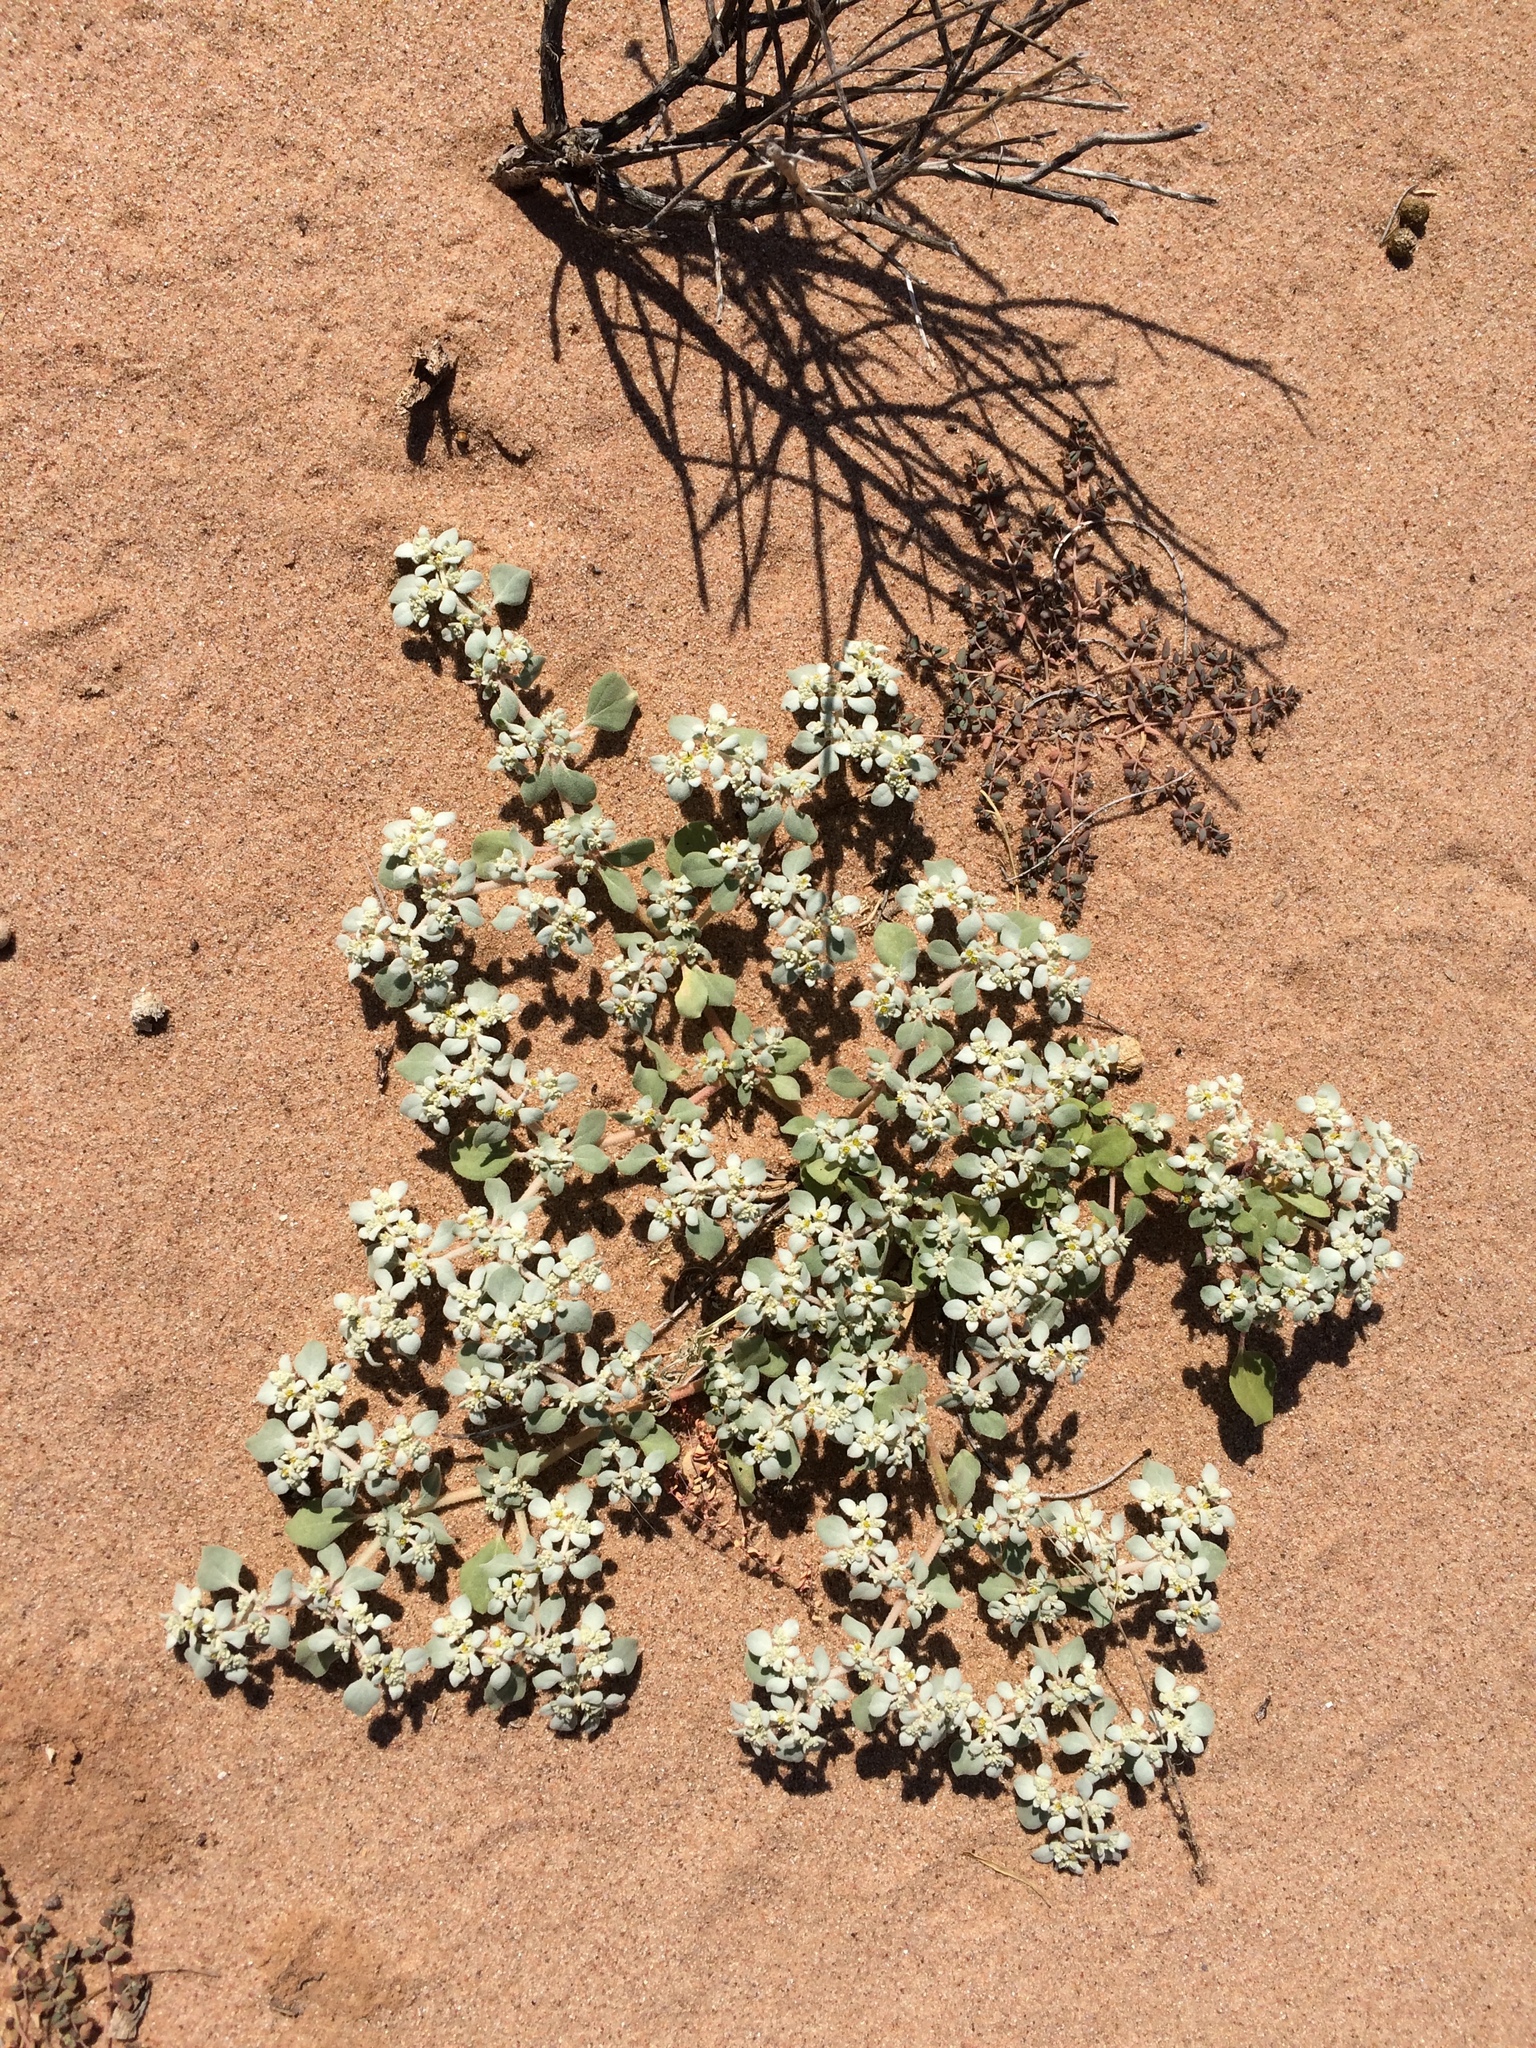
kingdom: Plantae
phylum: Tracheophyta
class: Magnoliopsida
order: Caryophyllales
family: Amaranthaceae
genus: Tidestromia
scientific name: Tidestromia lanuginosa
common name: Woolly tidestromia
